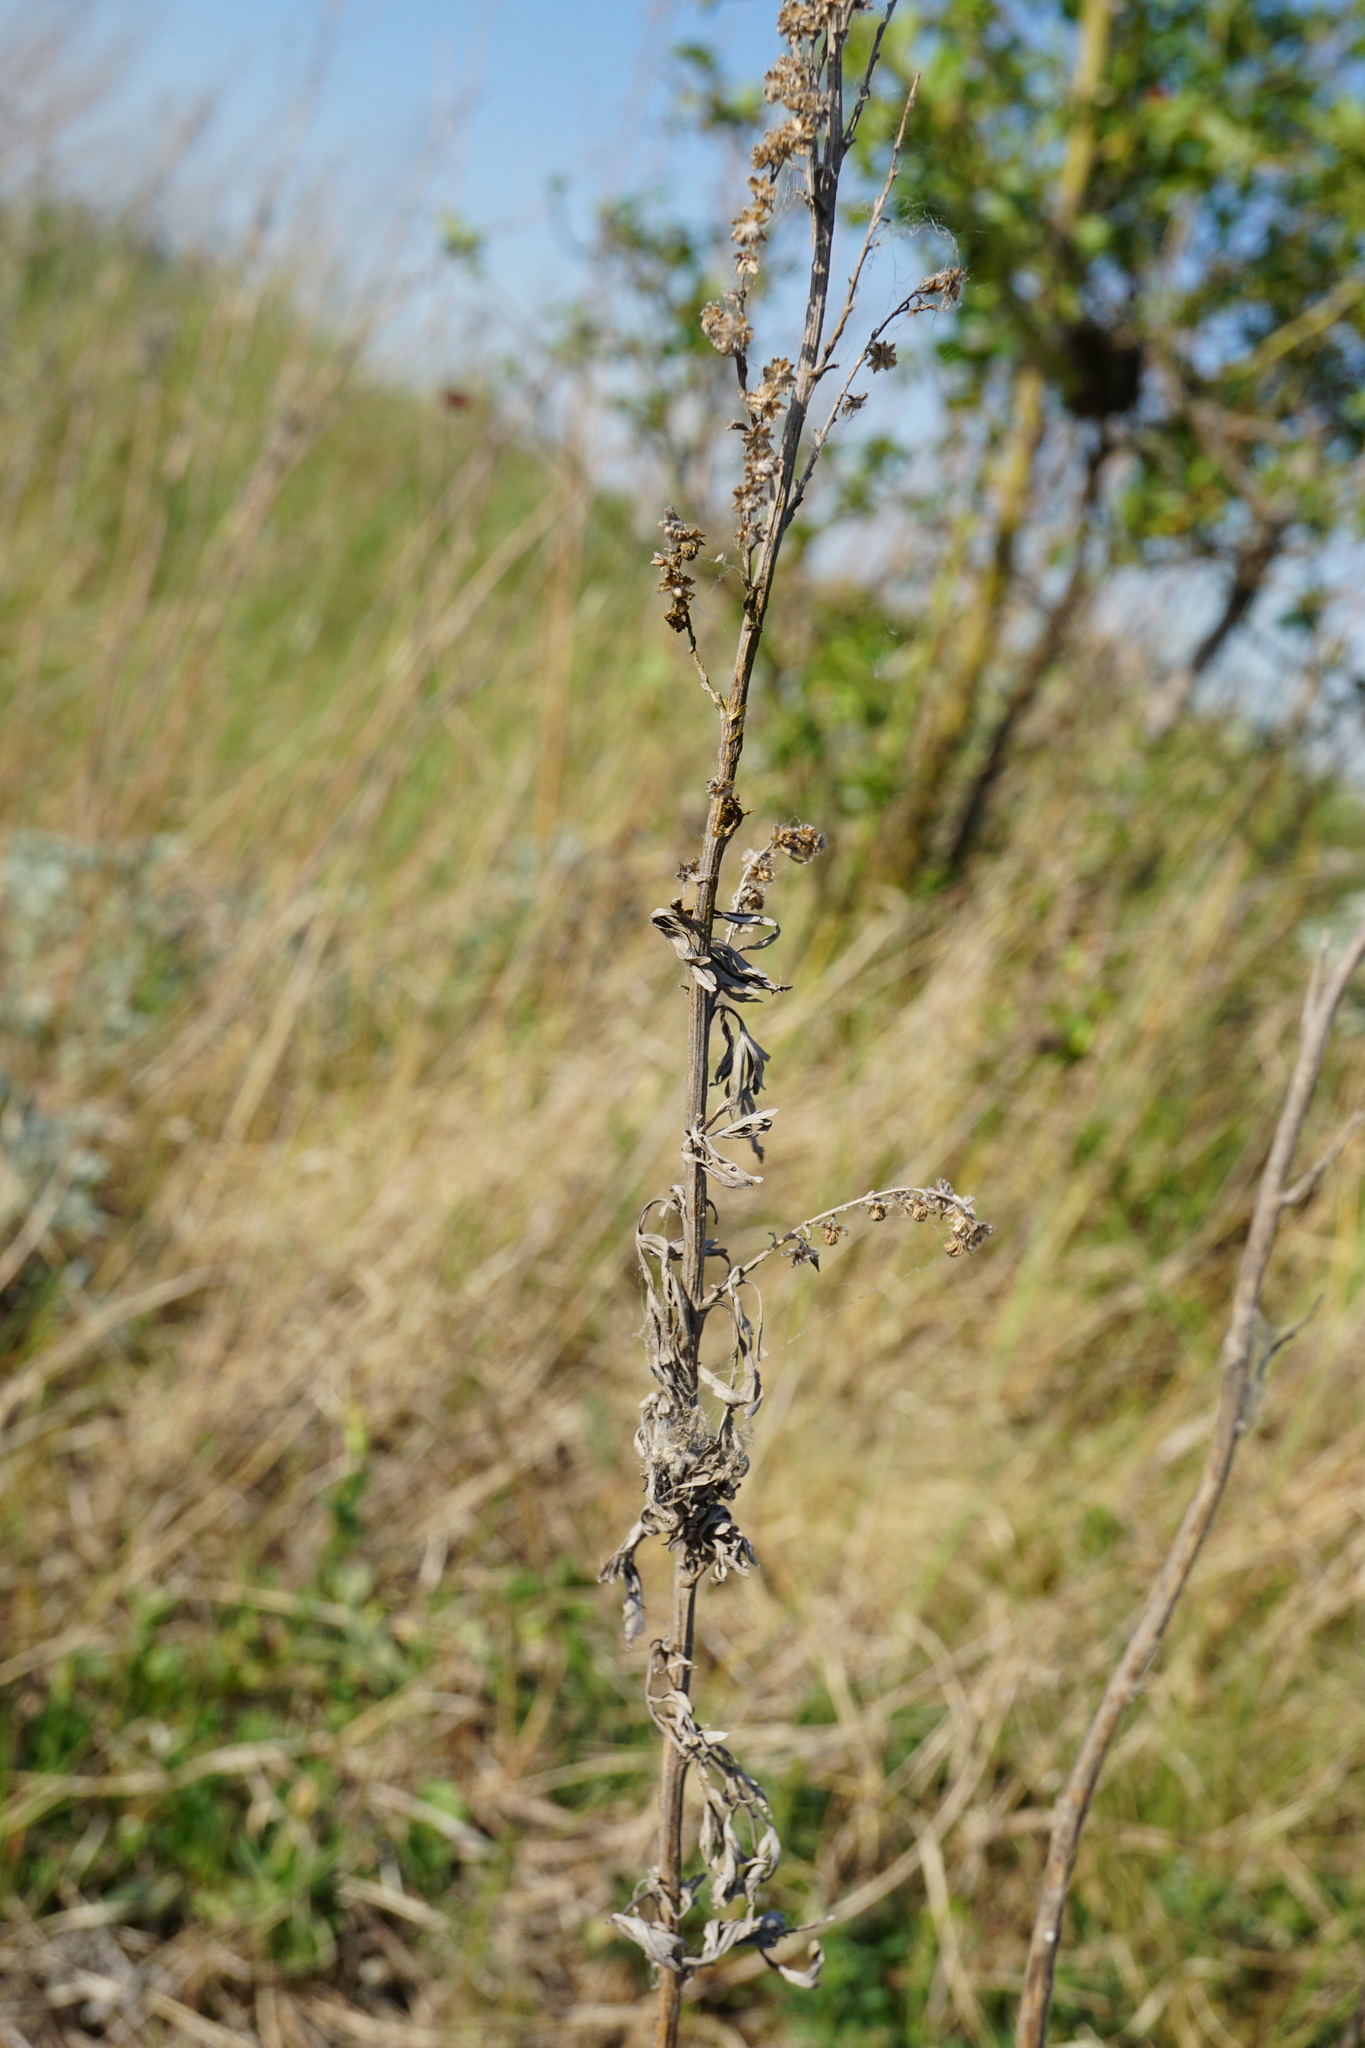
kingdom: Plantae
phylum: Tracheophyta
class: Magnoliopsida
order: Asterales
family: Asteraceae
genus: Artemisia
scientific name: Artemisia absinthium
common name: Wormwood
